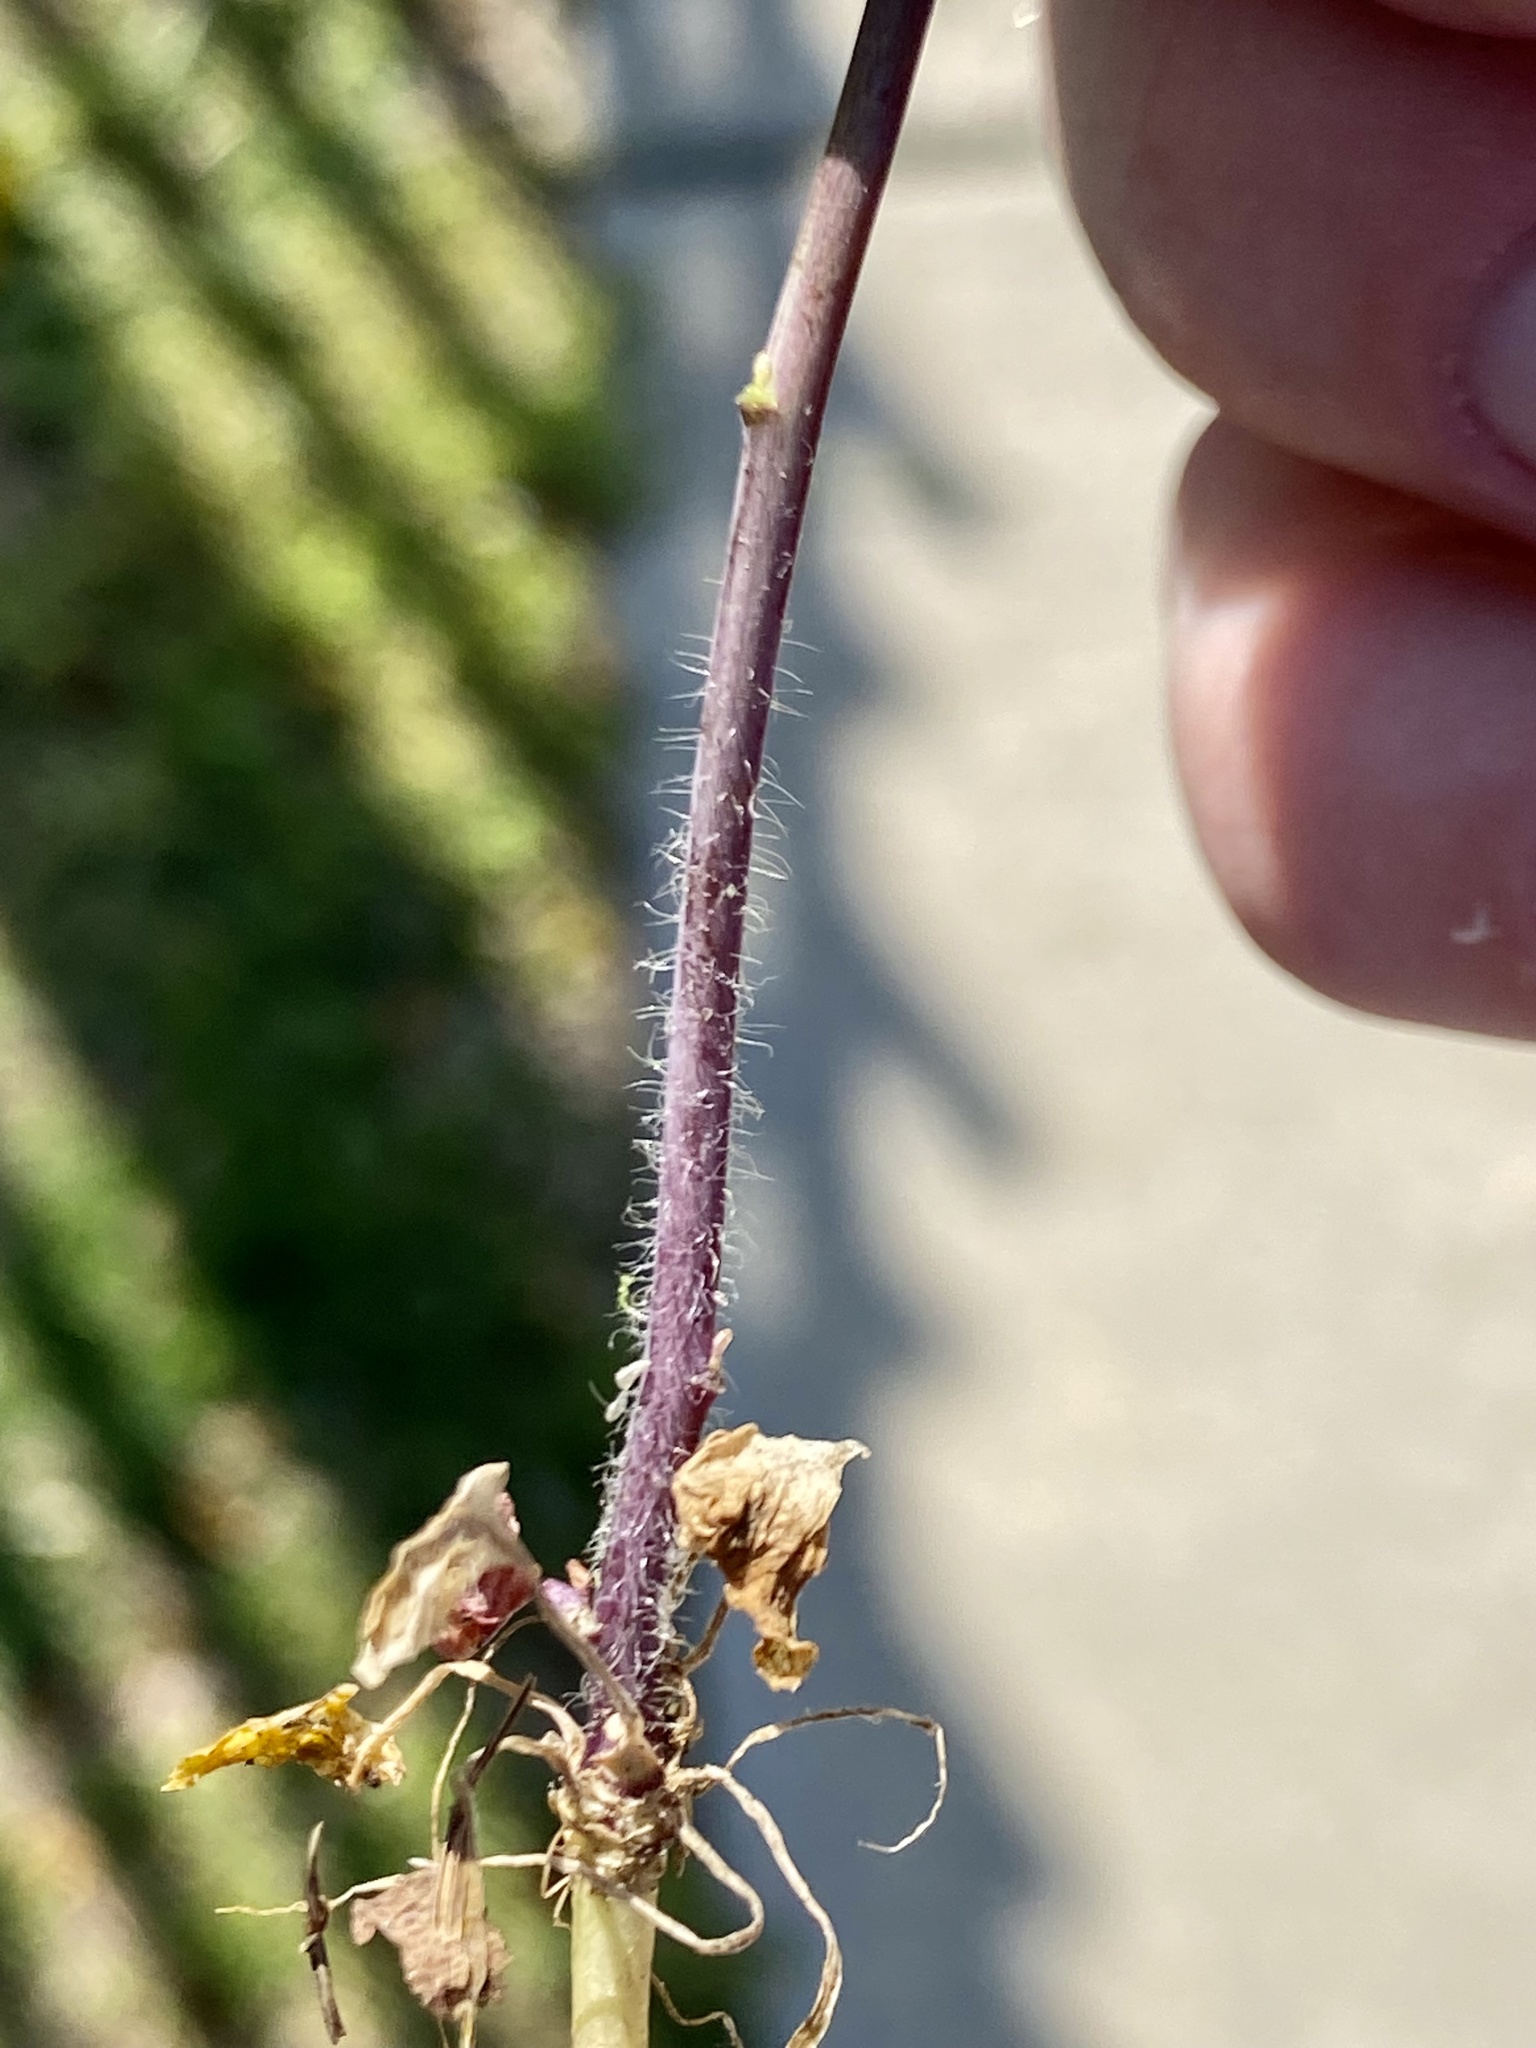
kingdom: Plantae
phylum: Tracheophyta
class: Magnoliopsida
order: Brassicales
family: Brassicaceae
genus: Mummenhoffia
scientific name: Mummenhoffia alliacea
